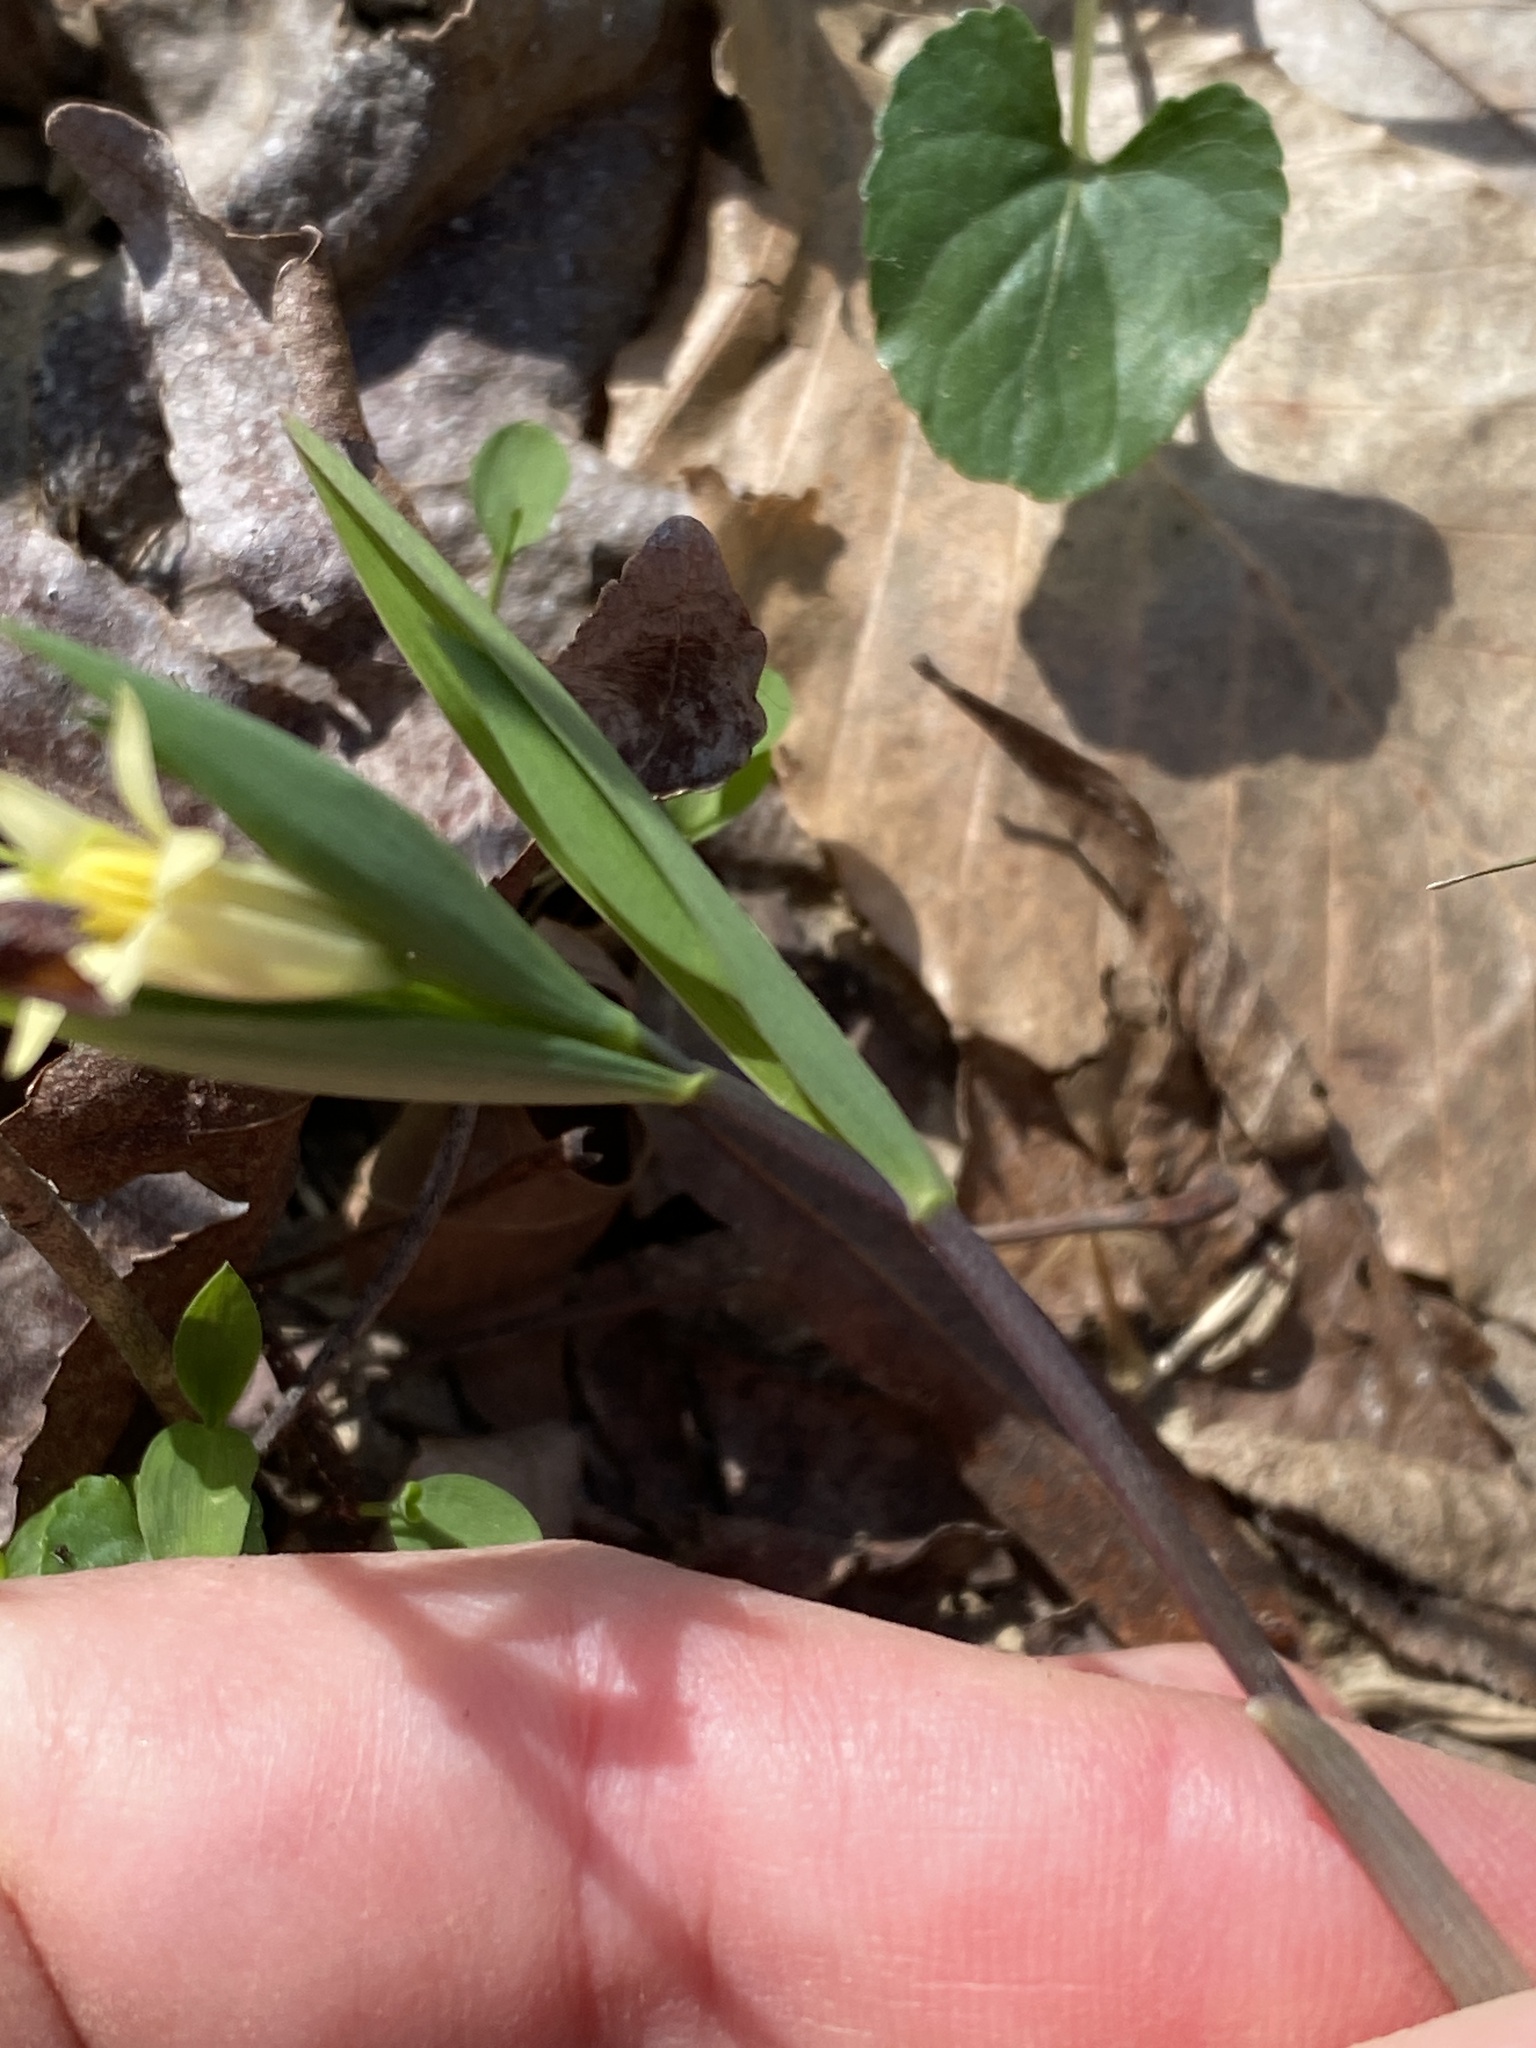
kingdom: Plantae
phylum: Tracheophyta
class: Liliopsida
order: Liliales
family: Colchicaceae
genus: Uvularia
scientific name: Uvularia sessilifolia
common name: Straw-lily
